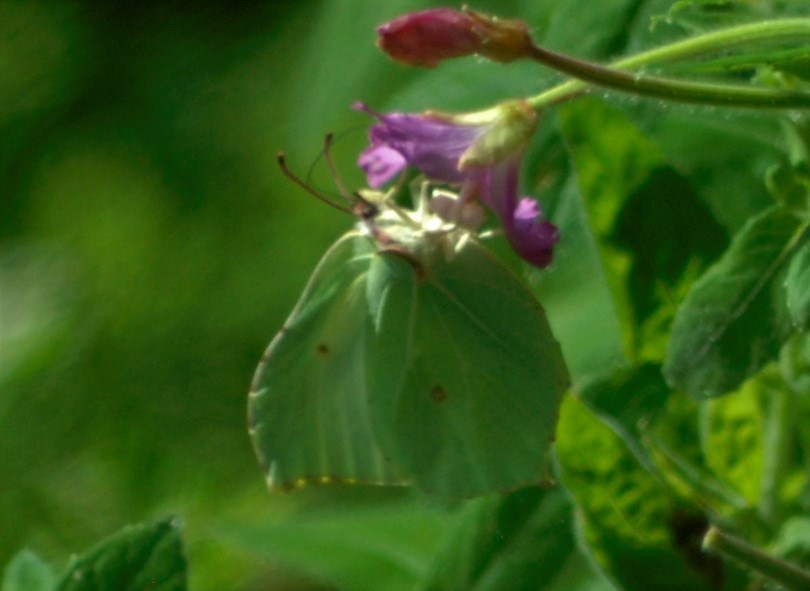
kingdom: Animalia
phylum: Arthropoda
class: Insecta
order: Lepidoptera
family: Pieridae
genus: Gonepteryx
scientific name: Gonepteryx rhamni
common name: Brimstone
